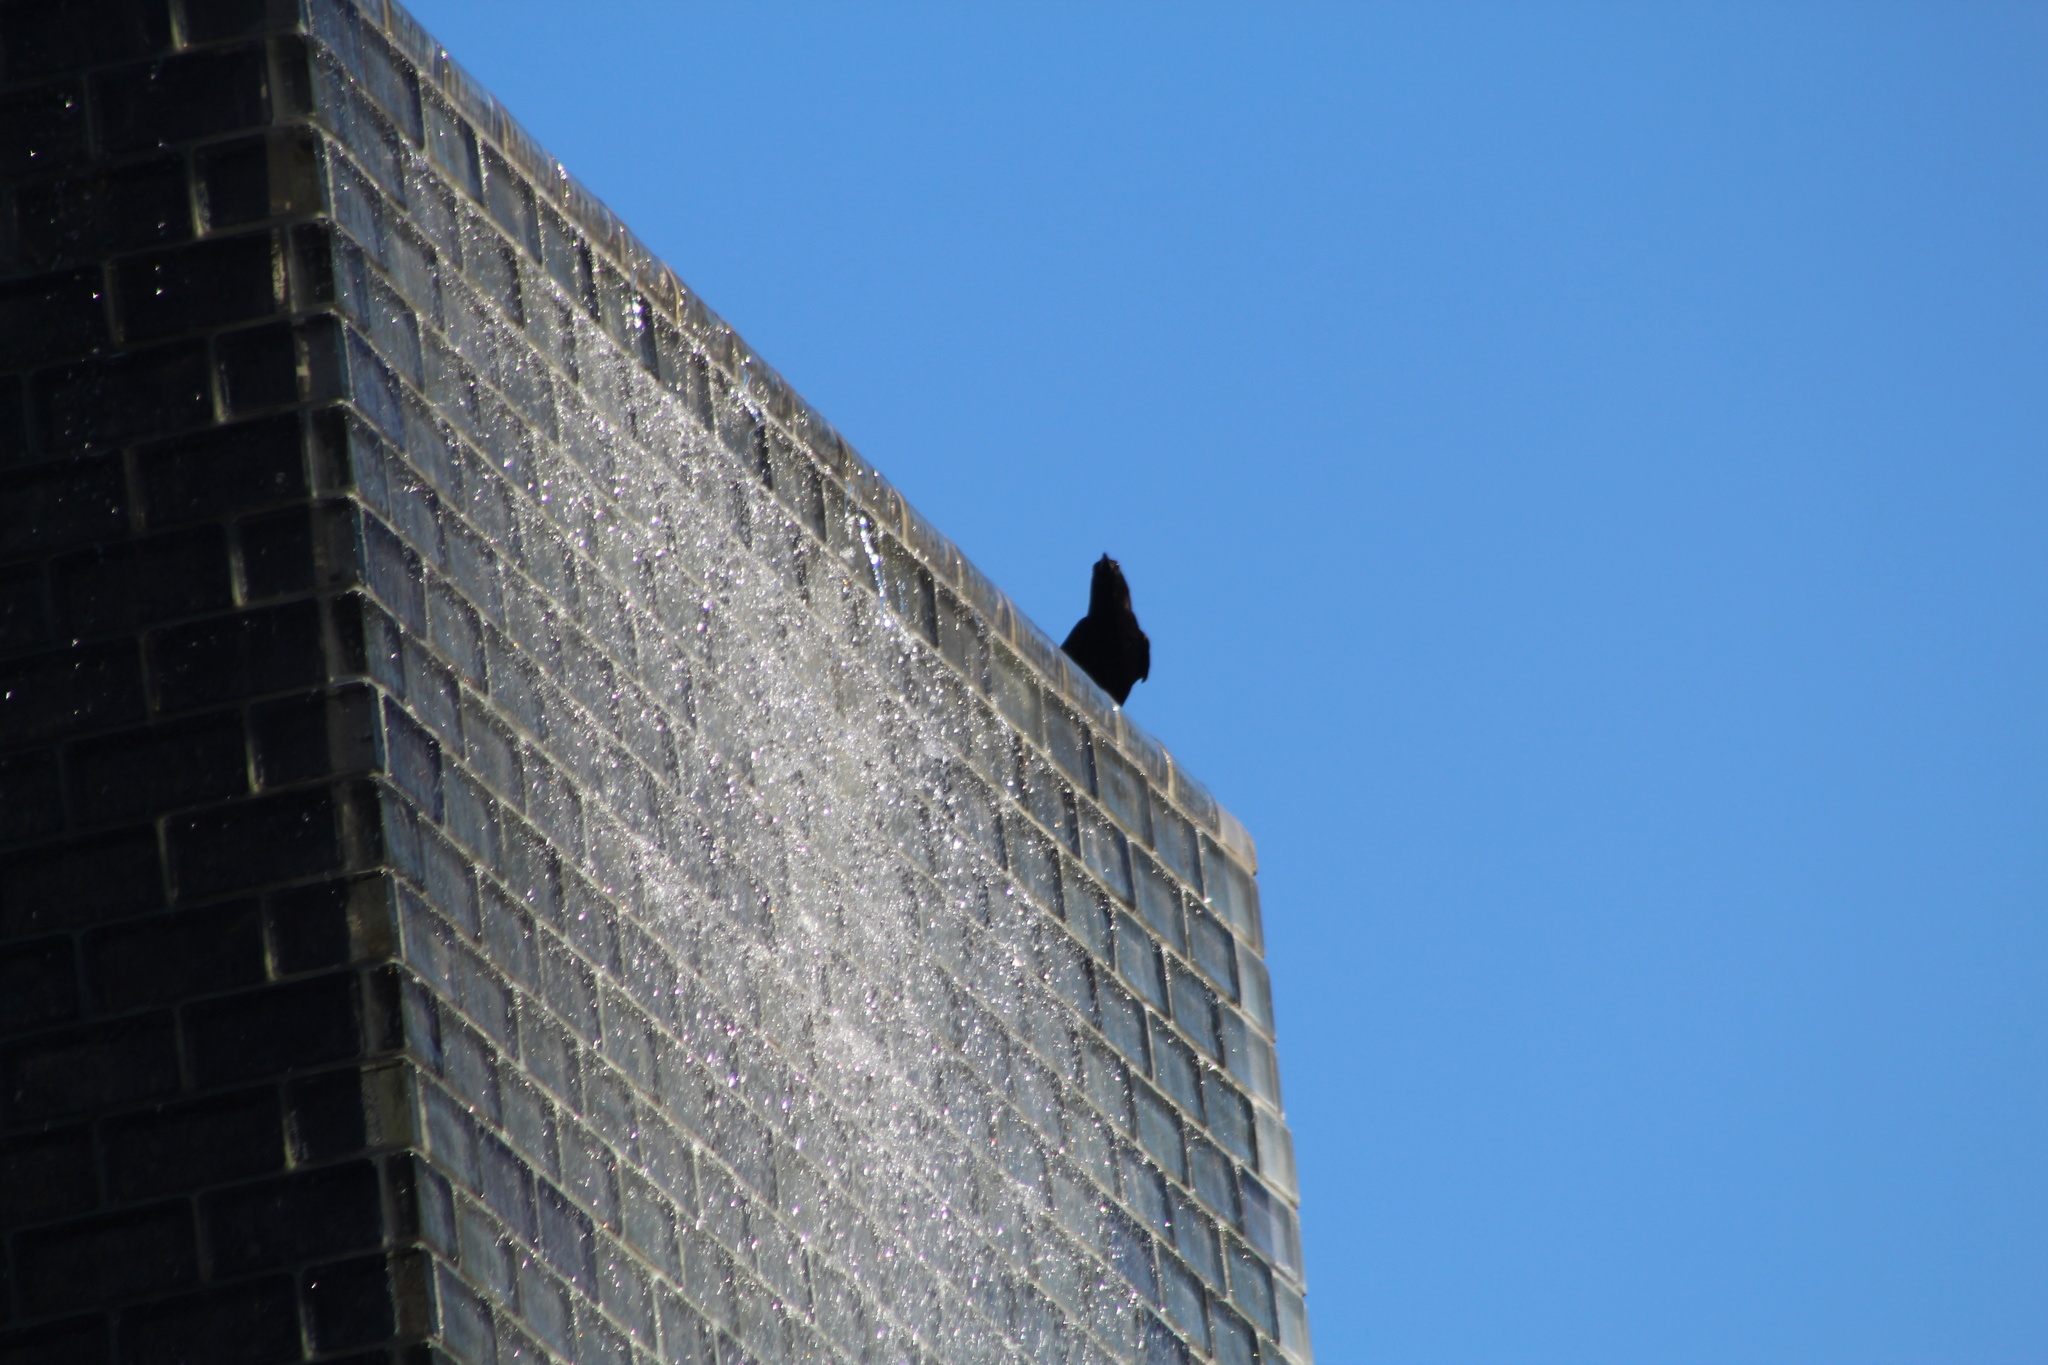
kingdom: Animalia
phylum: Chordata
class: Aves
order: Passeriformes
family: Corvidae
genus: Corvus
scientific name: Corvus brachyrhynchos
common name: American crow
